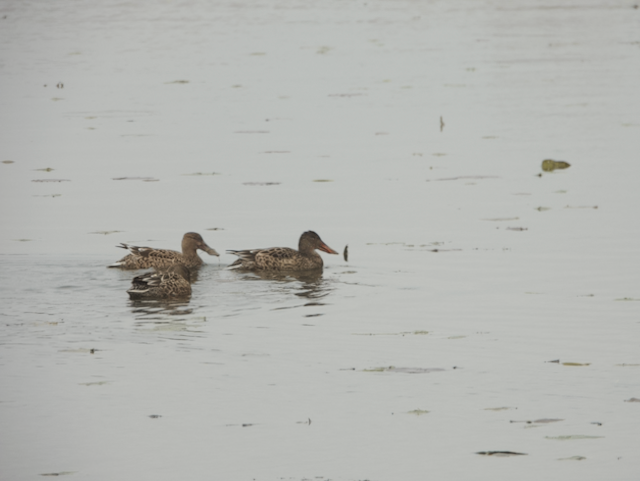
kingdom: Animalia
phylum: Chordata
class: Aves
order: Anseriformes
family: Anatidae
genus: Spatula
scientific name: Spatula clypeata
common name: Northern shoveler
